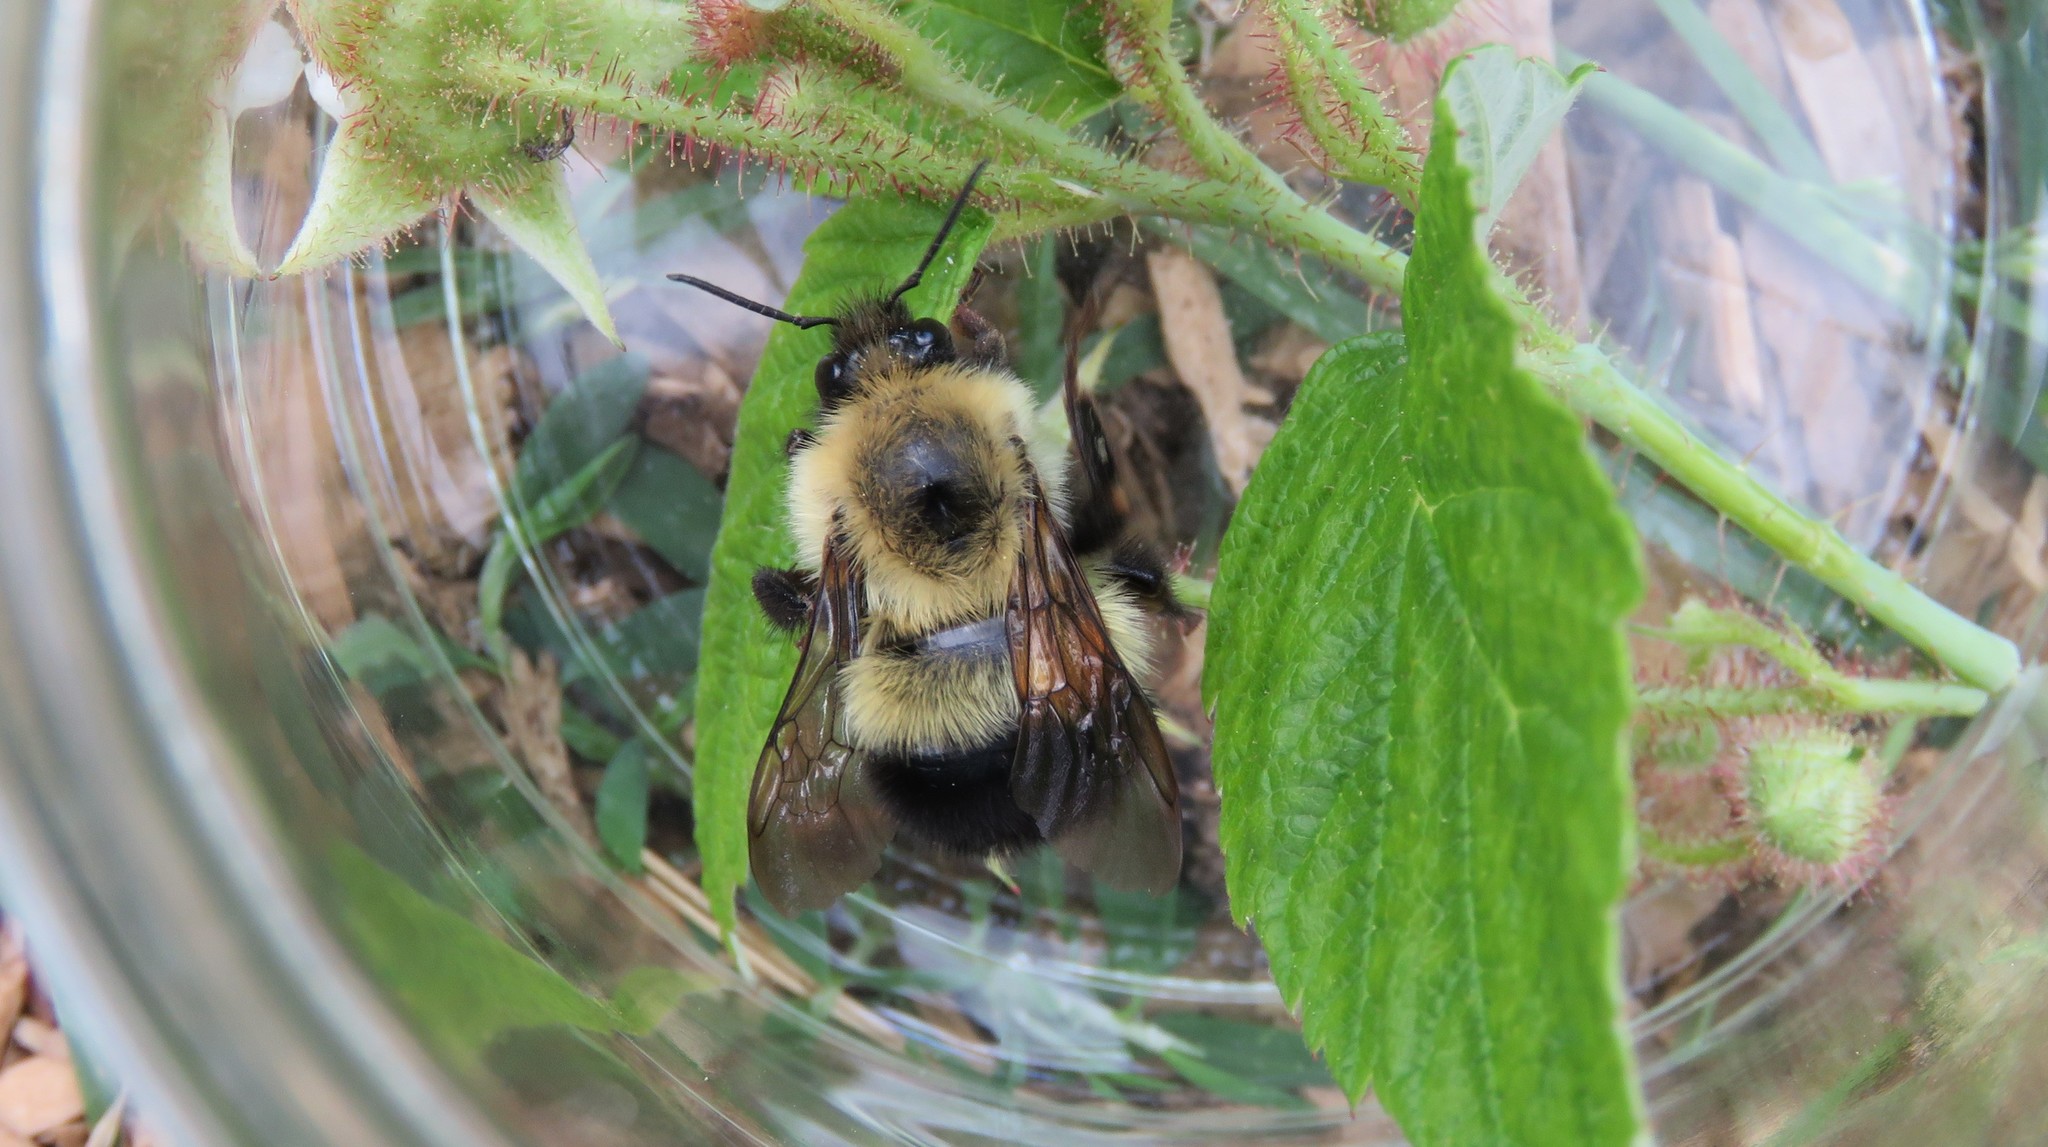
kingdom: Animalia
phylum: Arthropoda
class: Insecta
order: Hymenoptera
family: Apidae
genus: Bombus
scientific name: Bombus vagans
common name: Half-black bumble bee
